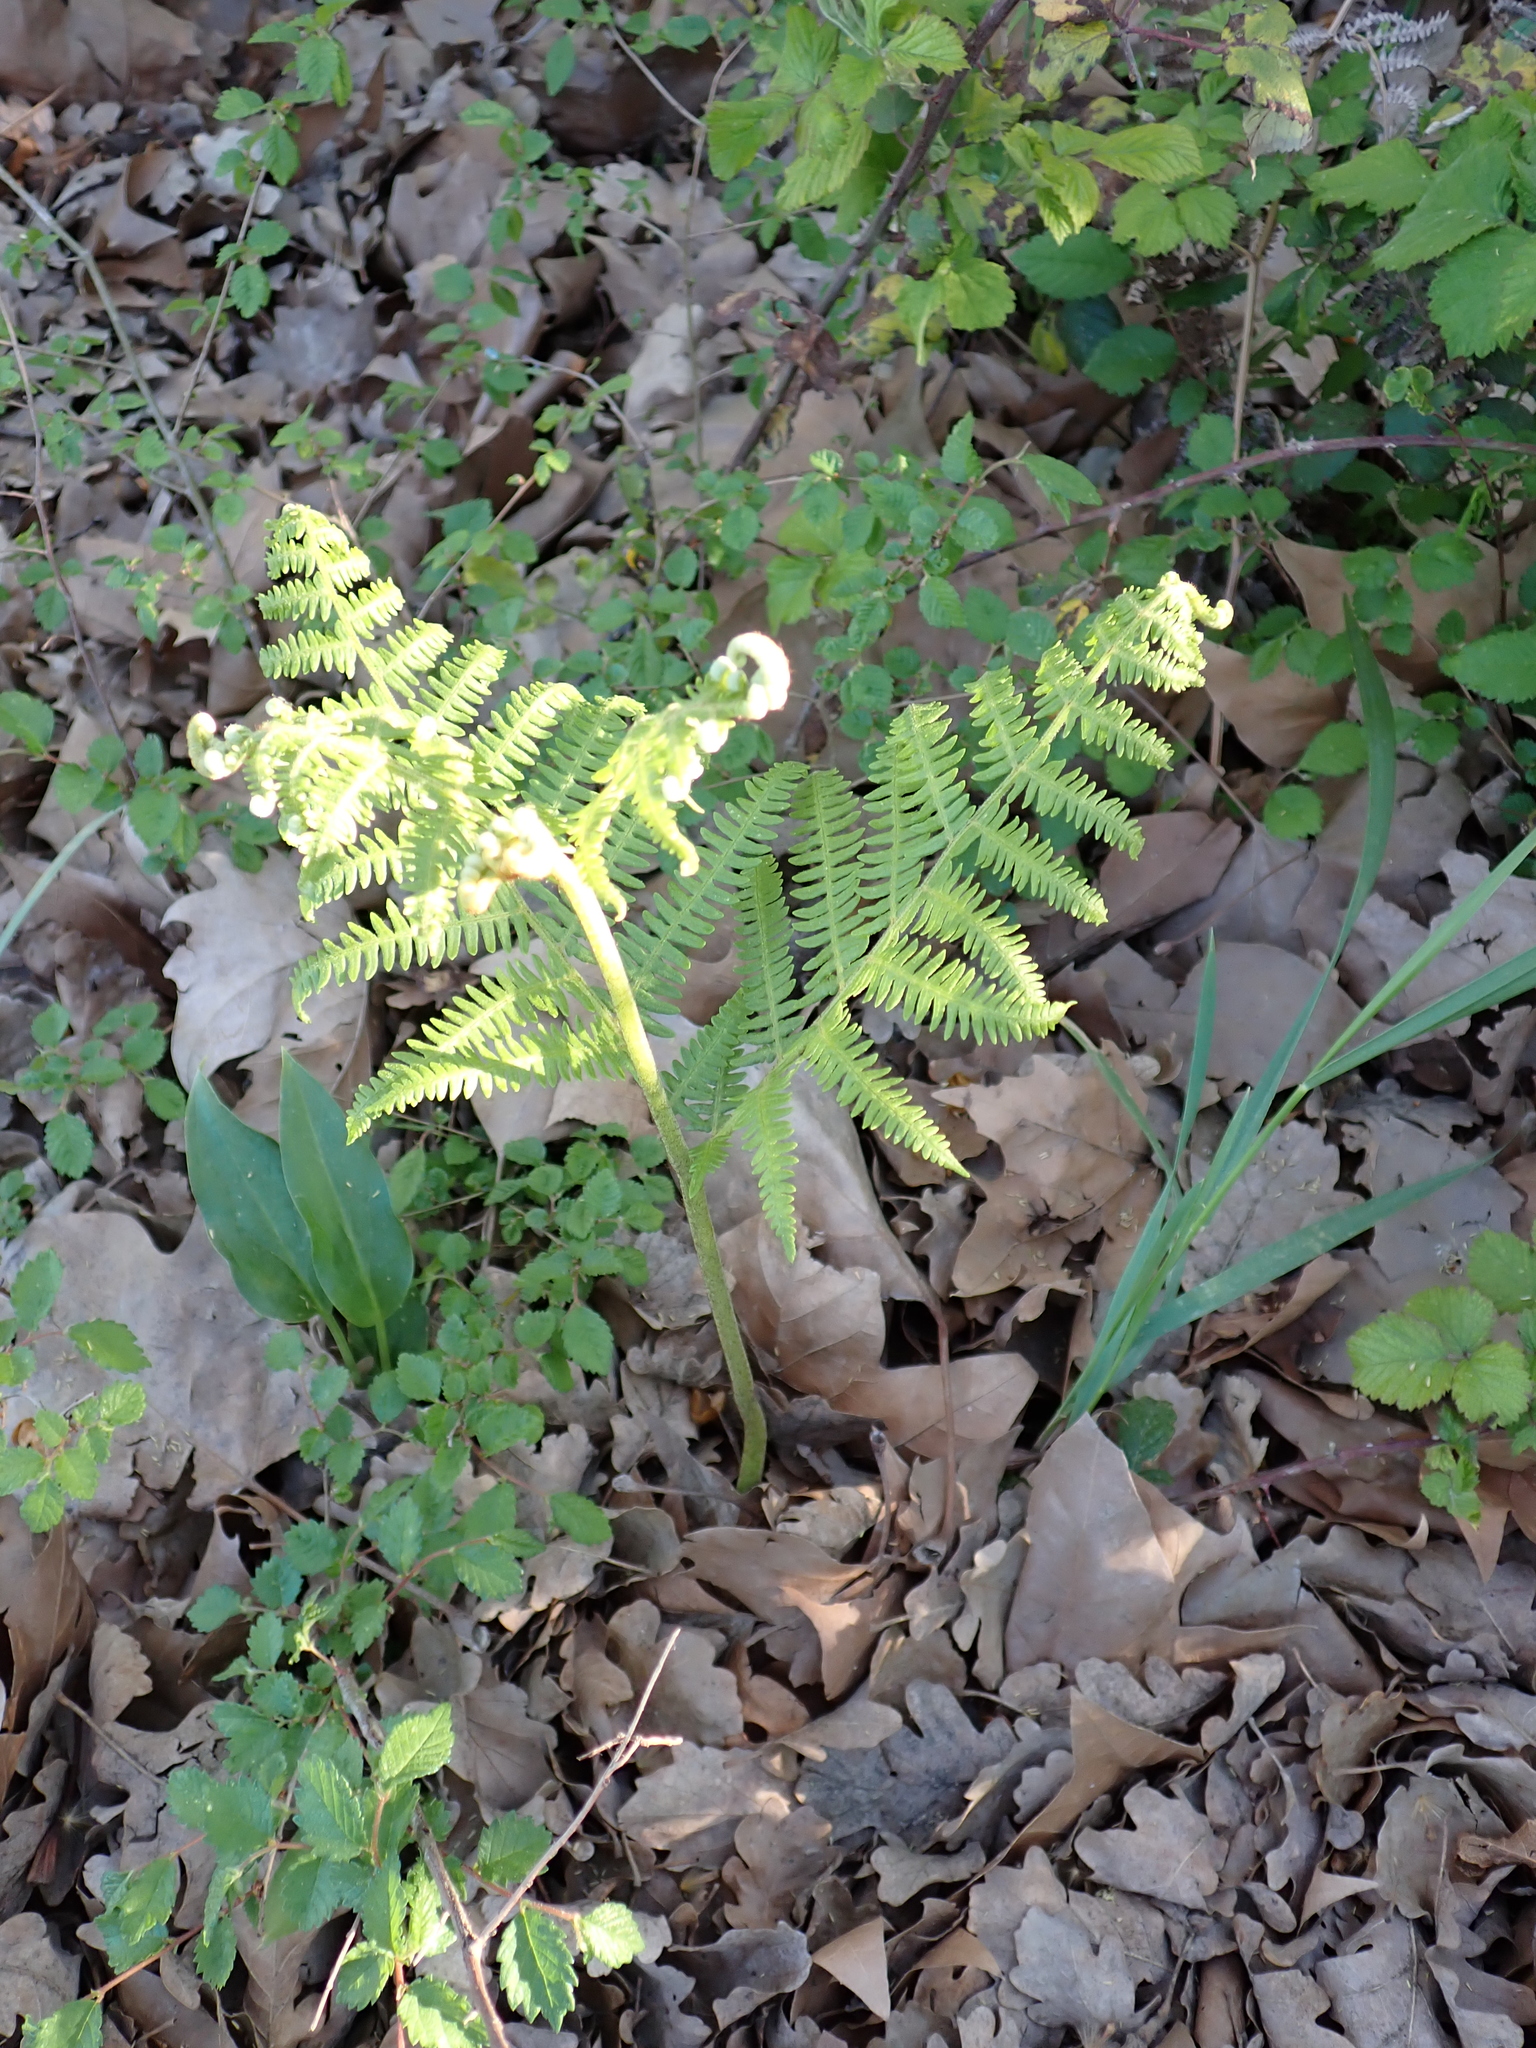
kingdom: Plantae
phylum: Tracheophyta
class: Polypodiopsida
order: Polypodiales
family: Dennstaedtiaceae
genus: Pteridium
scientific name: Pteridium aquilinum
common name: Bracken
